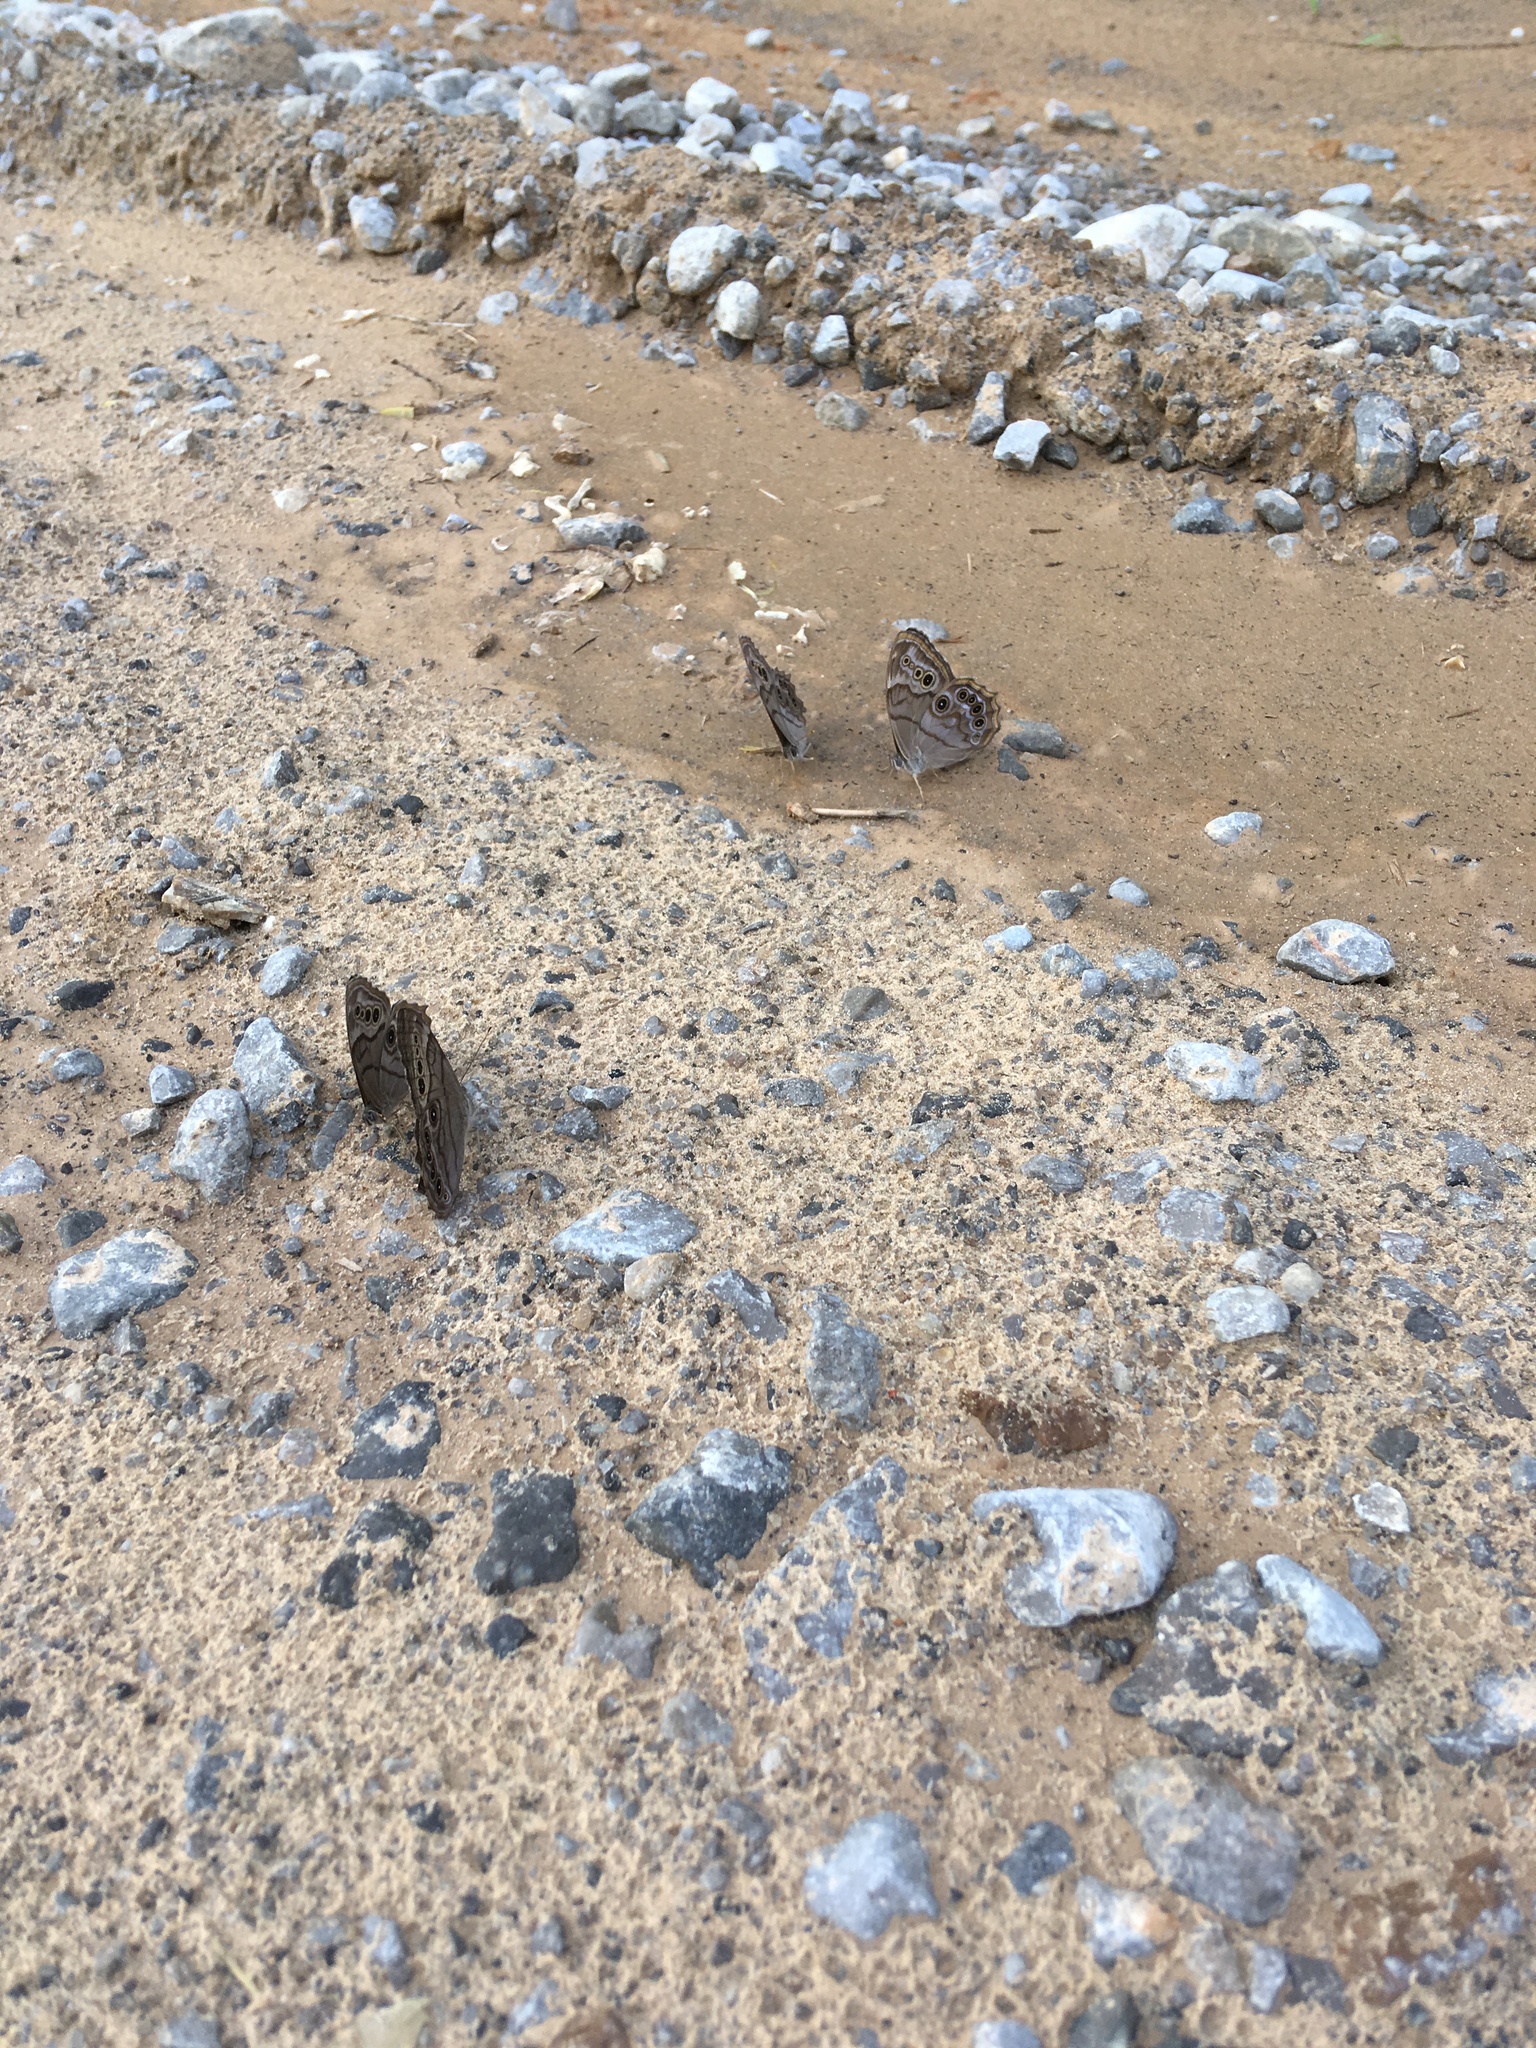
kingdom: Animalia
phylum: Arthropoda
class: Insecta
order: Lepidoptera
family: Nymphalidae
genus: Lethe
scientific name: Lethe anthedon
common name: Northern pearly-eye
